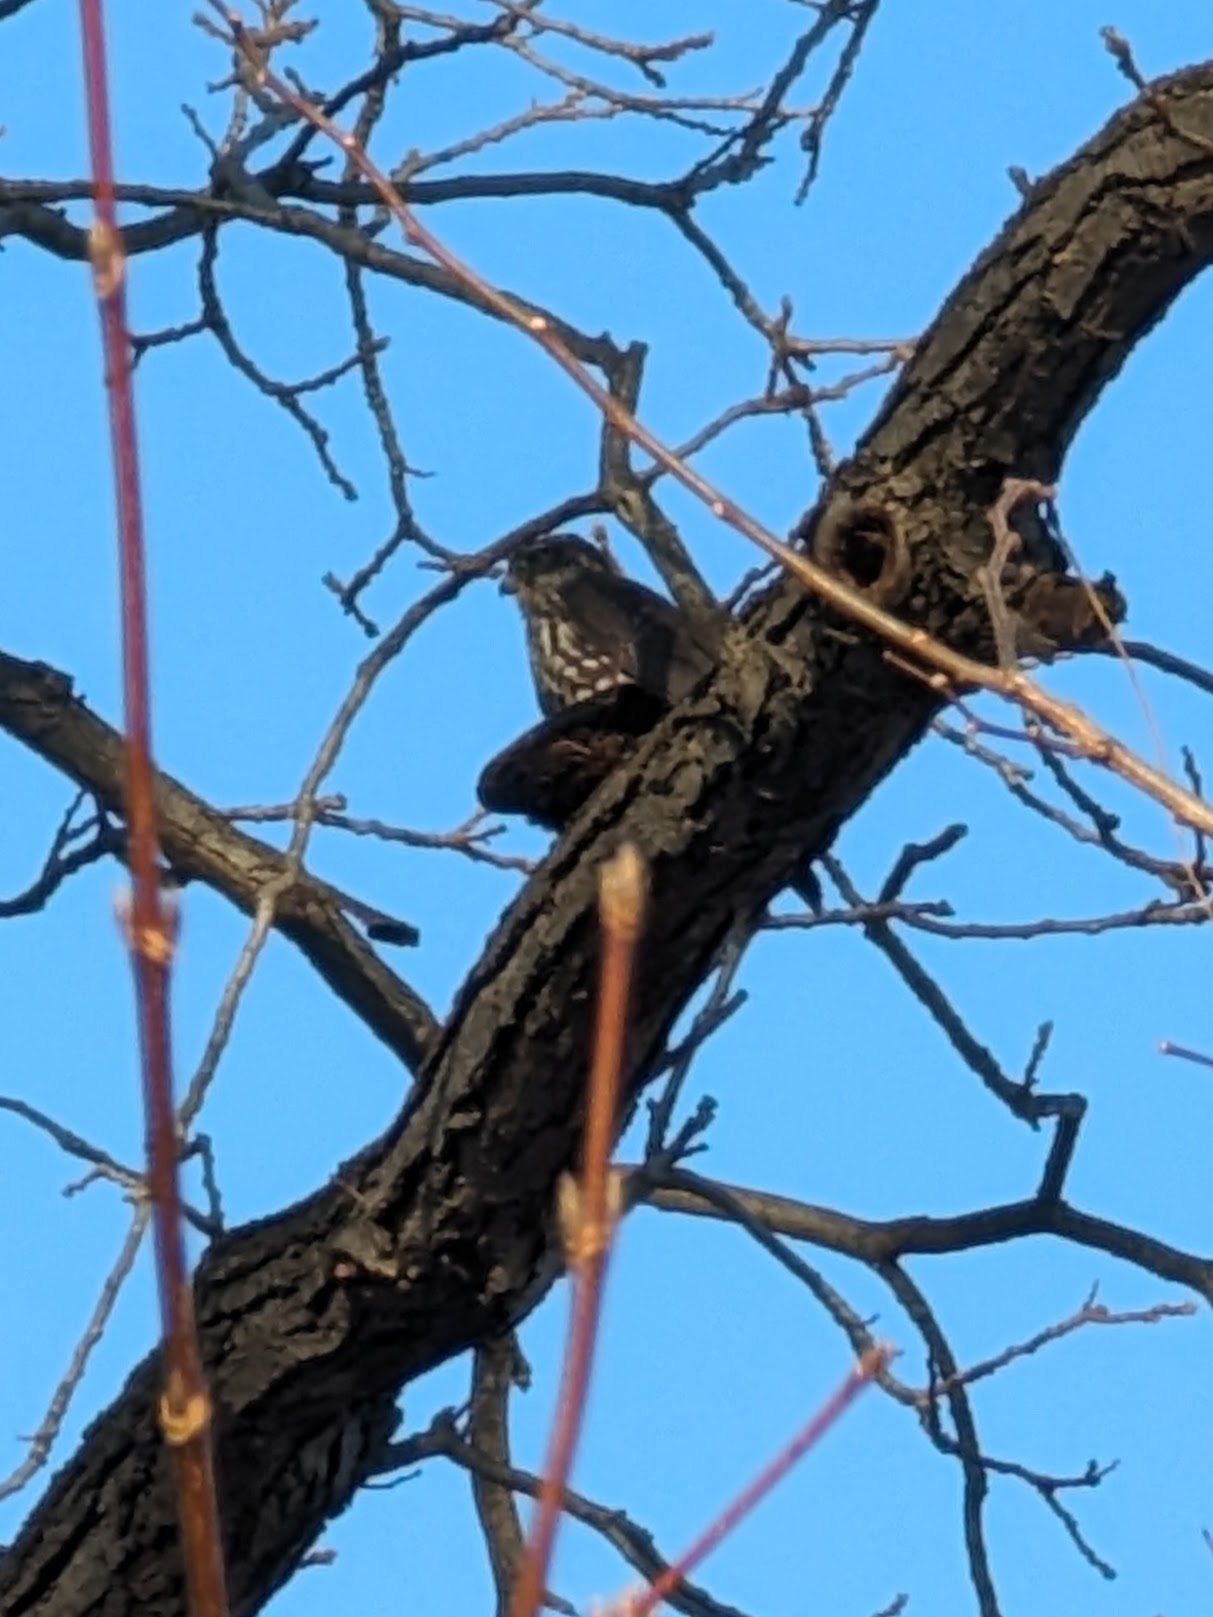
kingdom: Animalia
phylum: Chordata
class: Aves
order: Falconiformes
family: Falconidae
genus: Falco
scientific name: Falco columbarius
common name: Merlin
